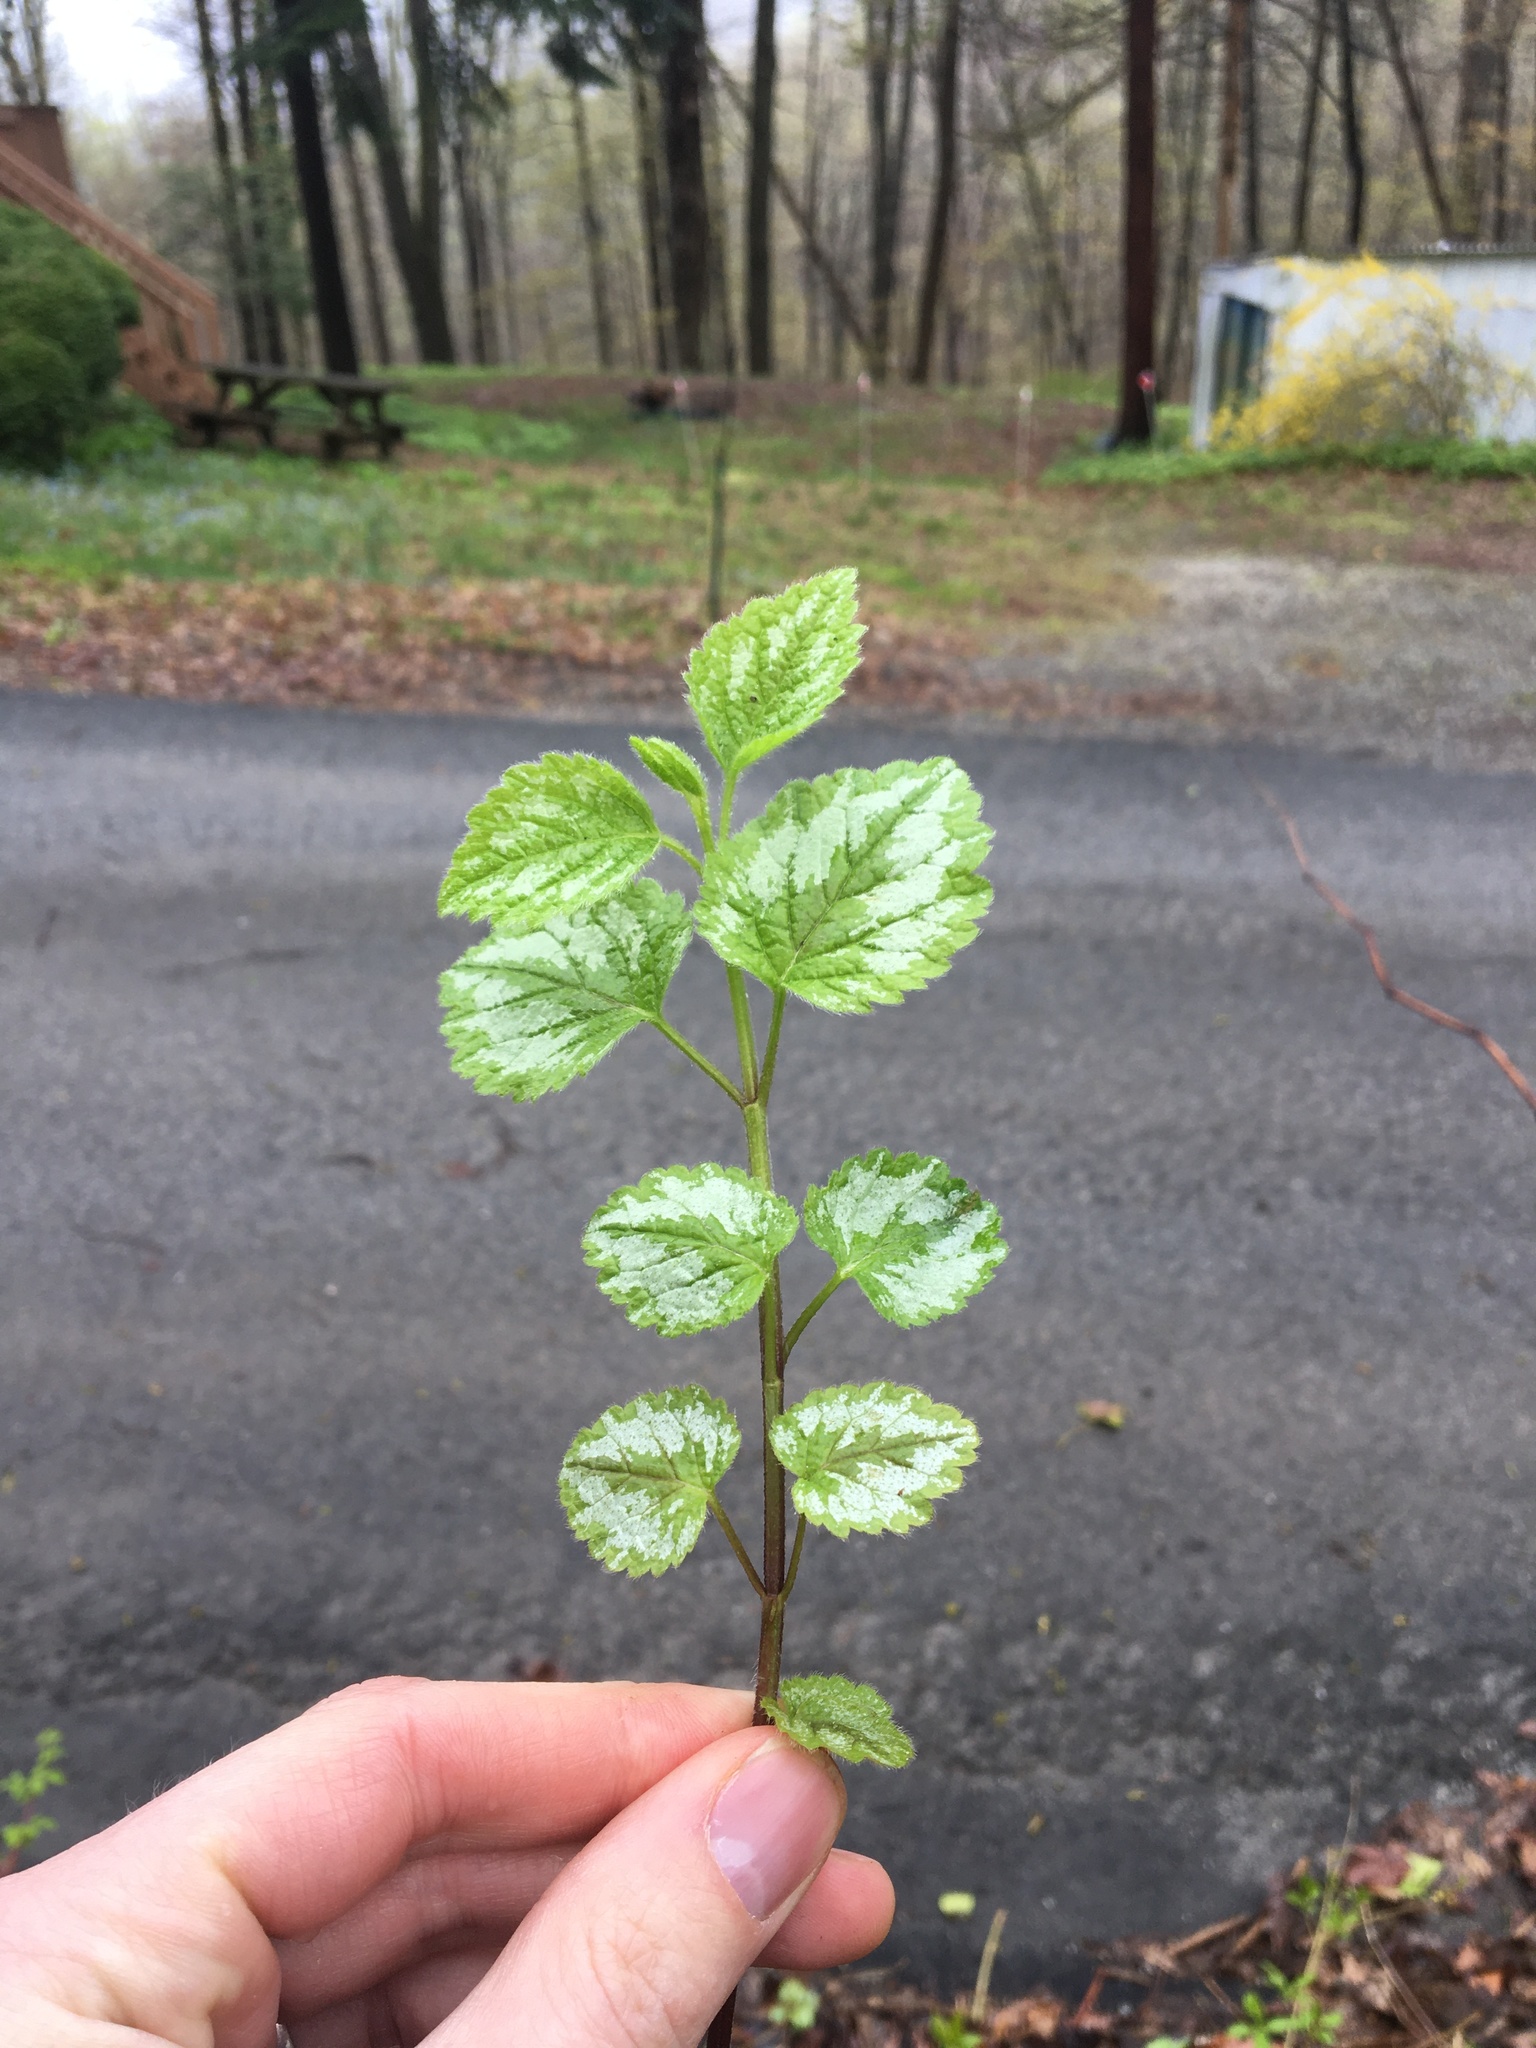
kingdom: Plantae
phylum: Tracheophyta
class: Magnoliopsida
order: Lamiales
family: Lamiaceae
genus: Lamium
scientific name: Lamium galeobdolon
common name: Yellow archangel
